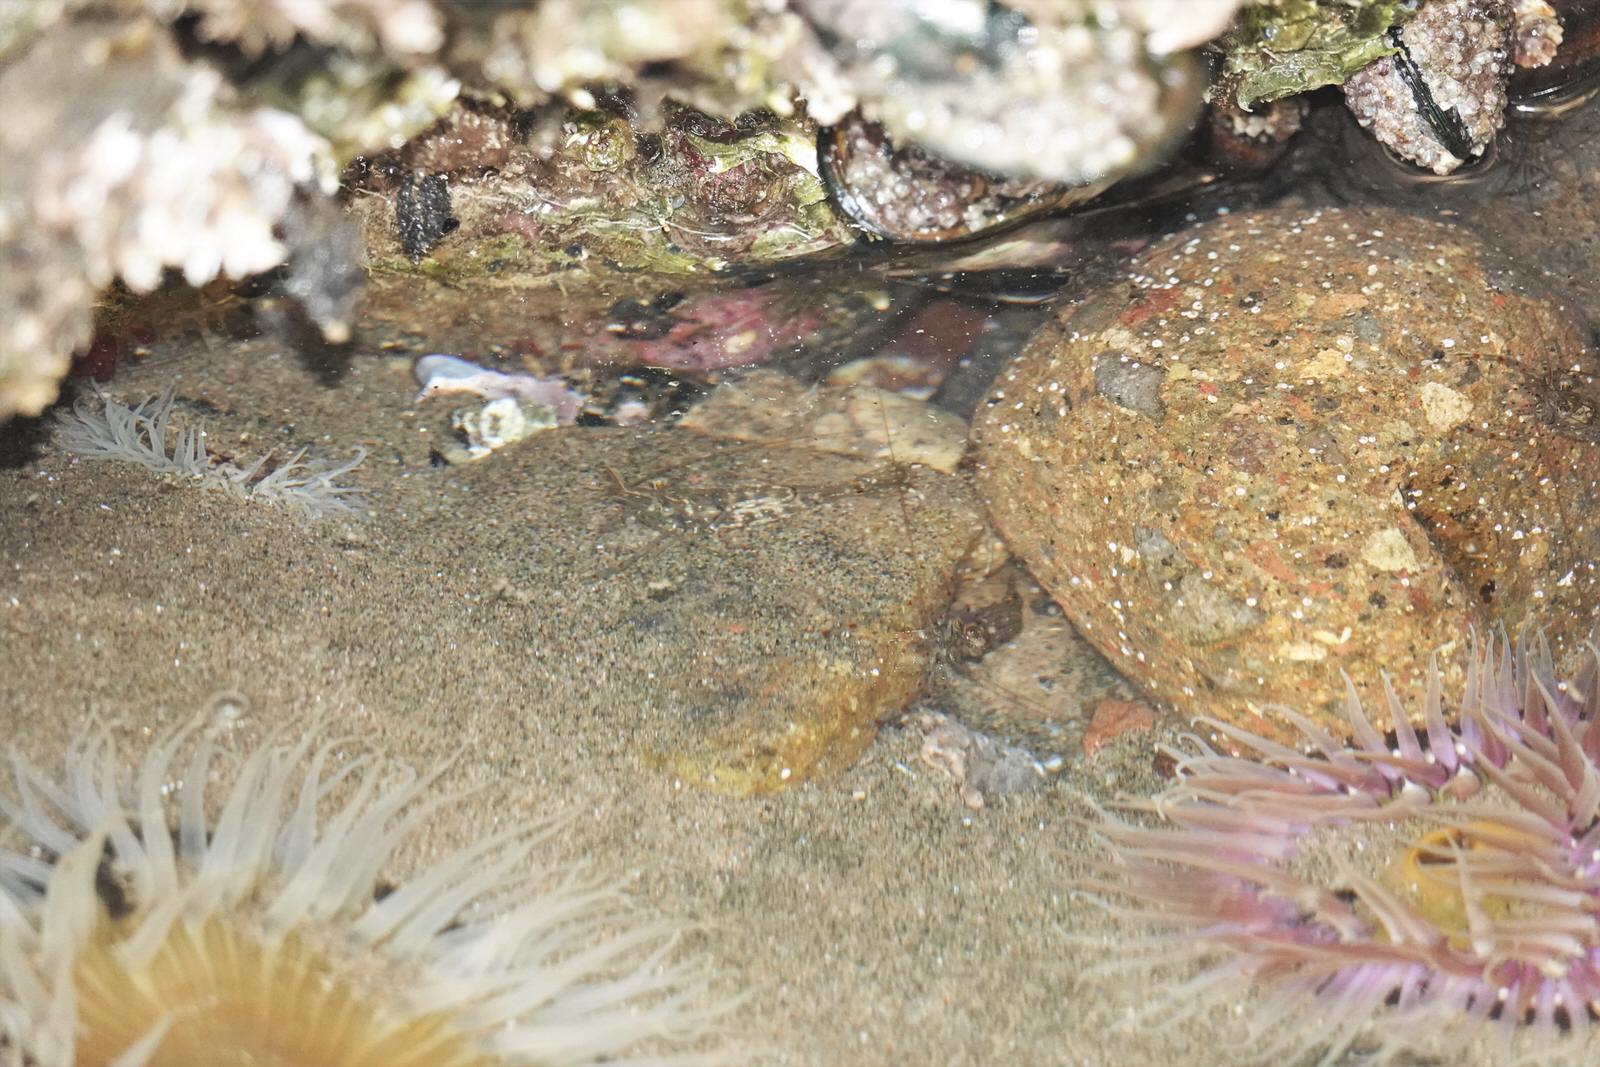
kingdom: Animalia
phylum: Arthropoda
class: Malacostraca
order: Decapoda
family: Palaemonidae
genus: Palaemon
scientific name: Palaemon affinis
